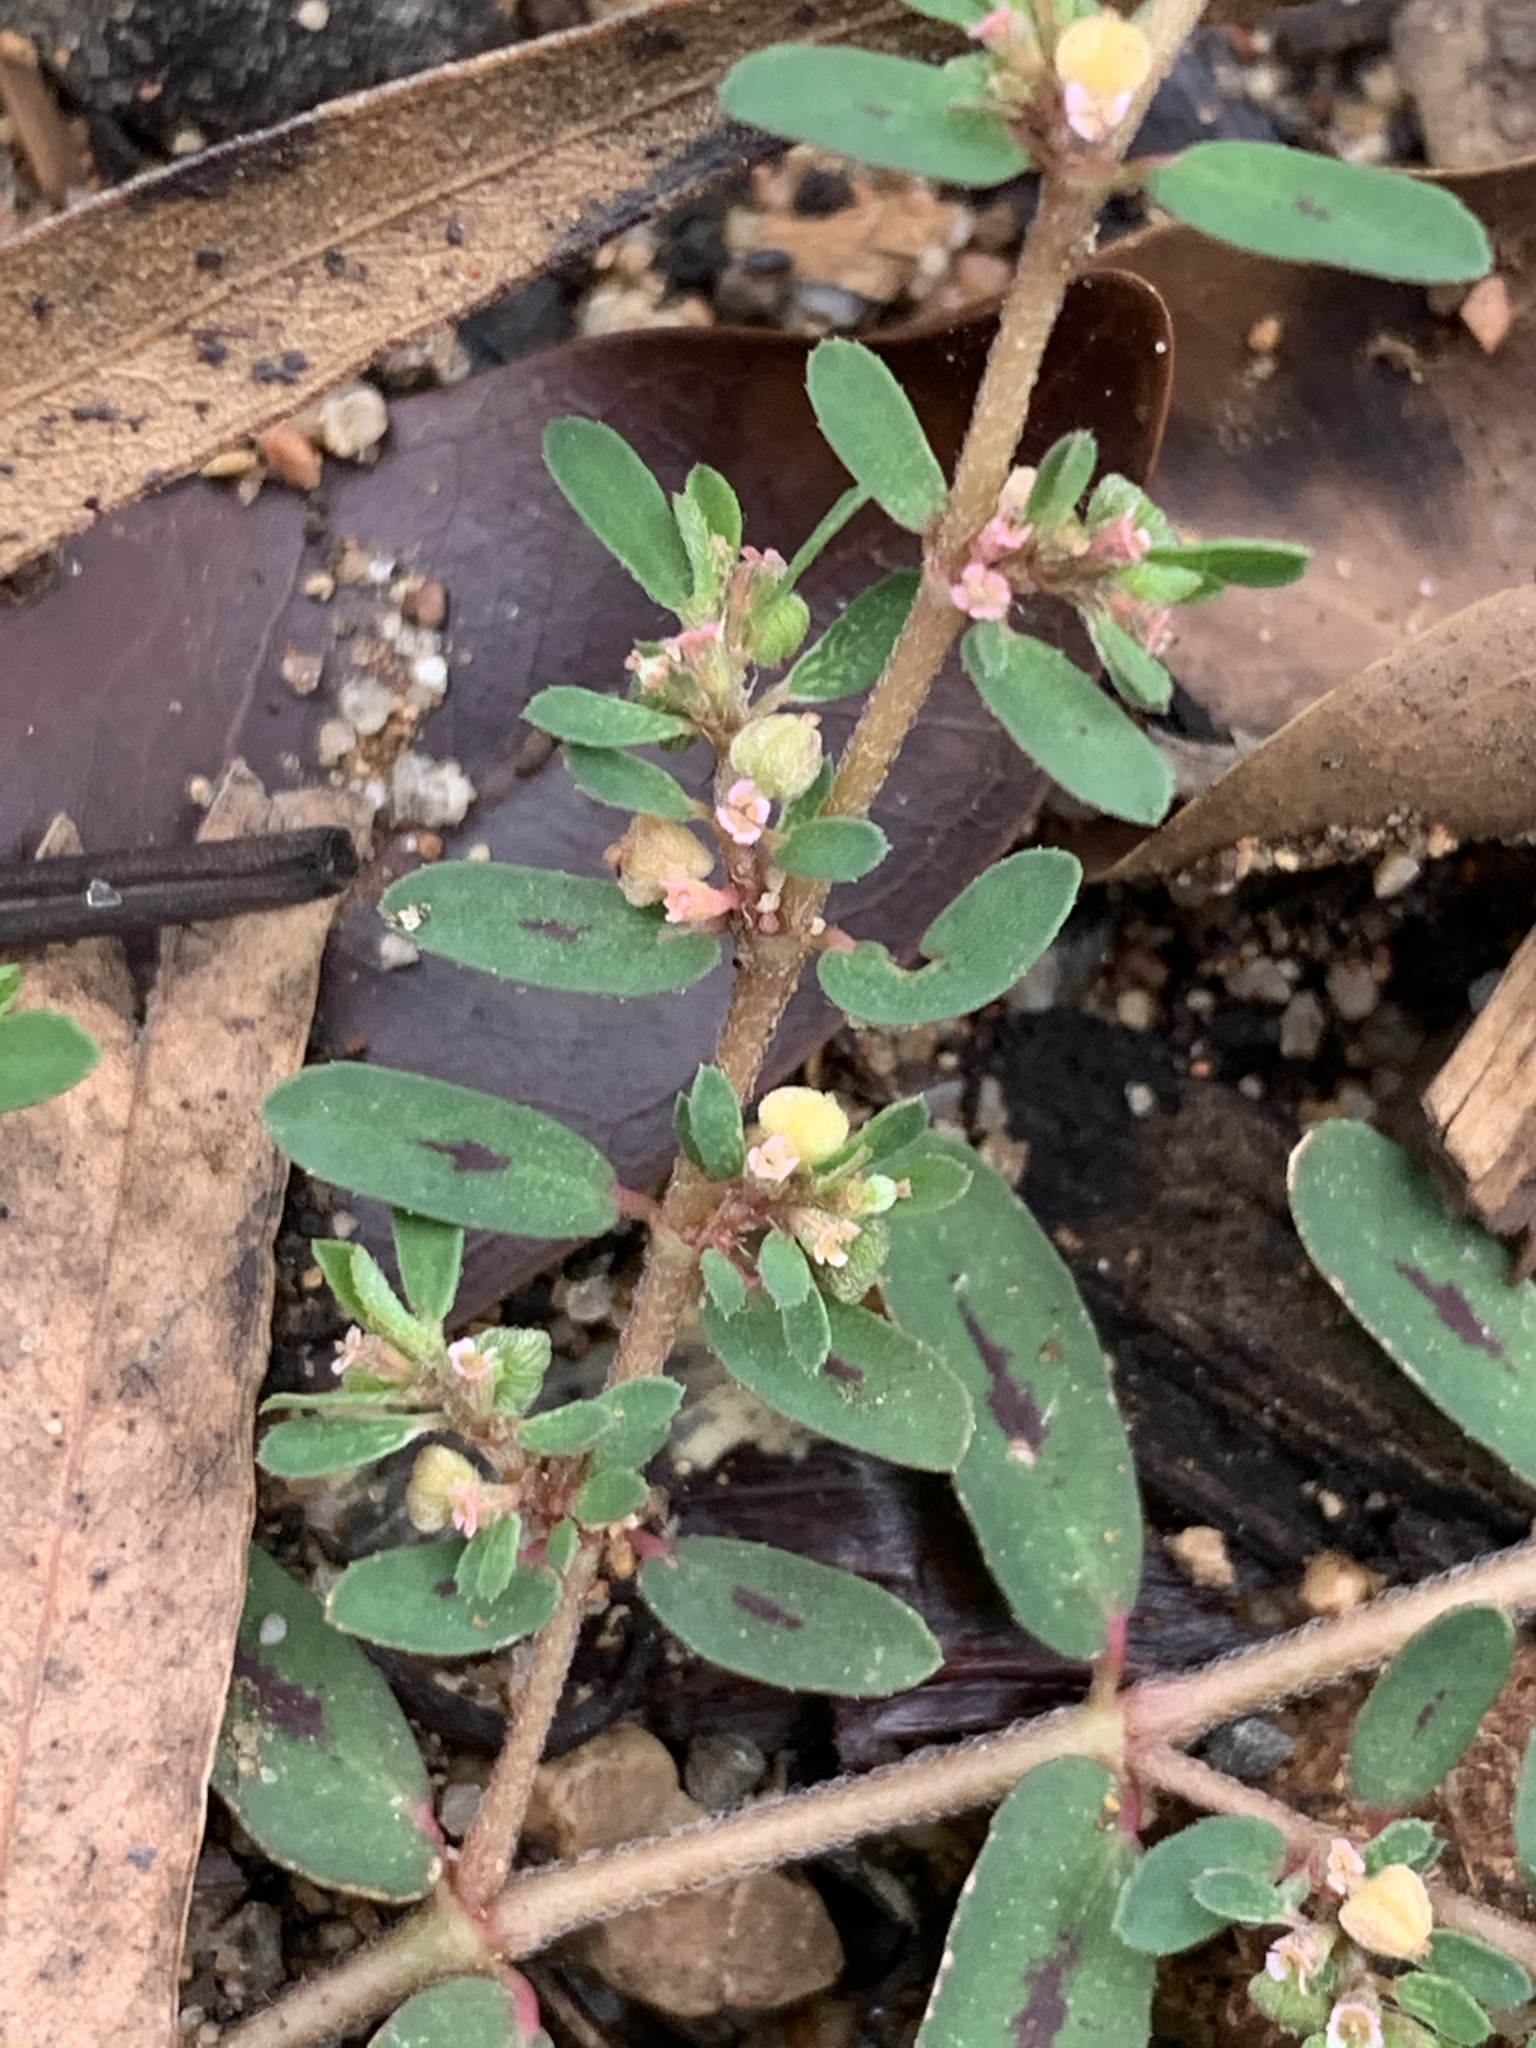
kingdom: Plantae
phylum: Tracheophyta
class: Magnoliopsida
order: Malpighiales
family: Euphorbiaceae
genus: Euphorbia
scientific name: Euphorbia maculata
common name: Spotted spurge
